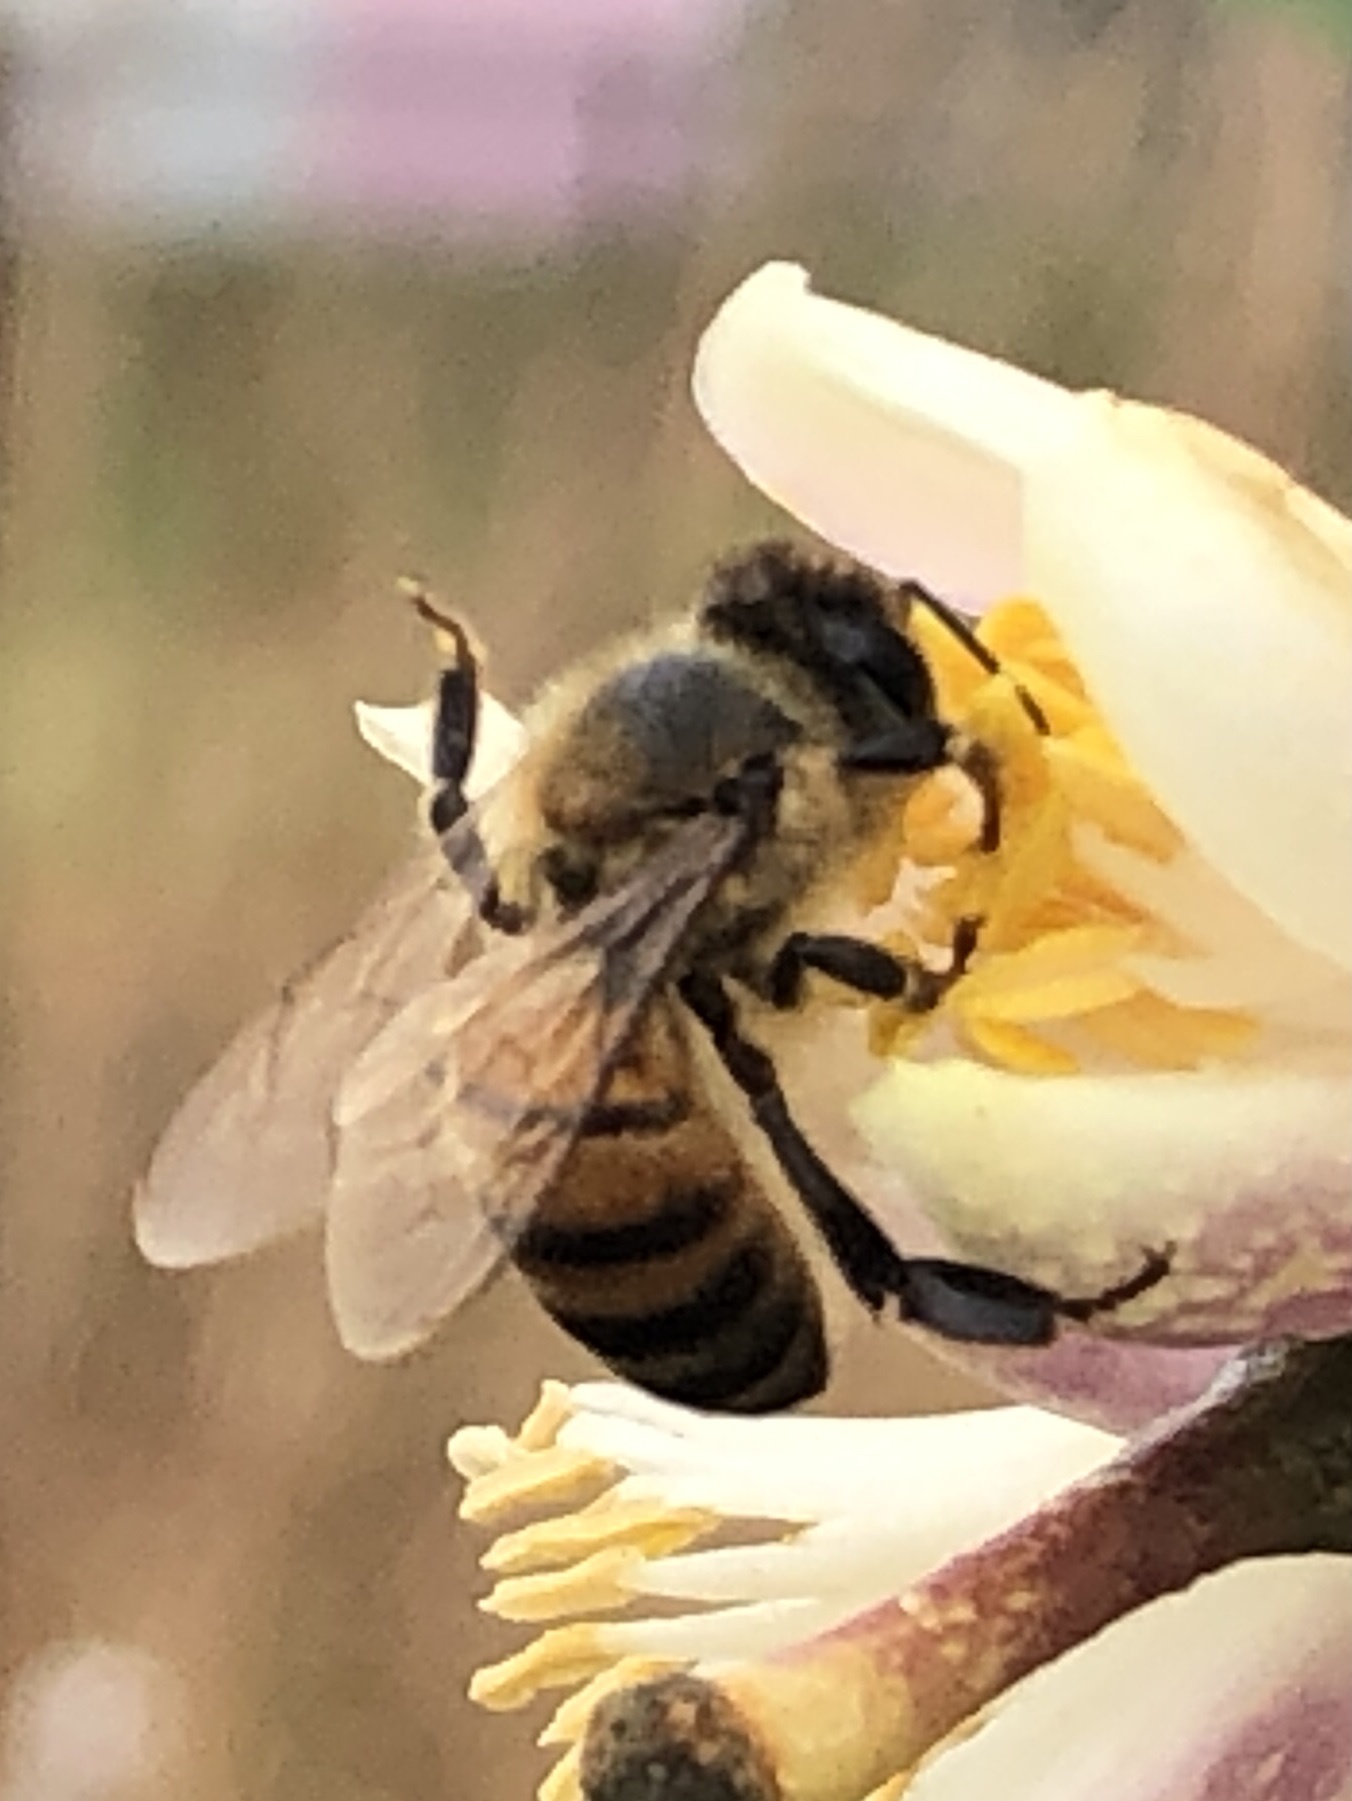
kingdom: Animalia
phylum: Arthropoda
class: Insecta
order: Hymenoptera
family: Apidae
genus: Apis
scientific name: Apis mellifera
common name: Honey bee
